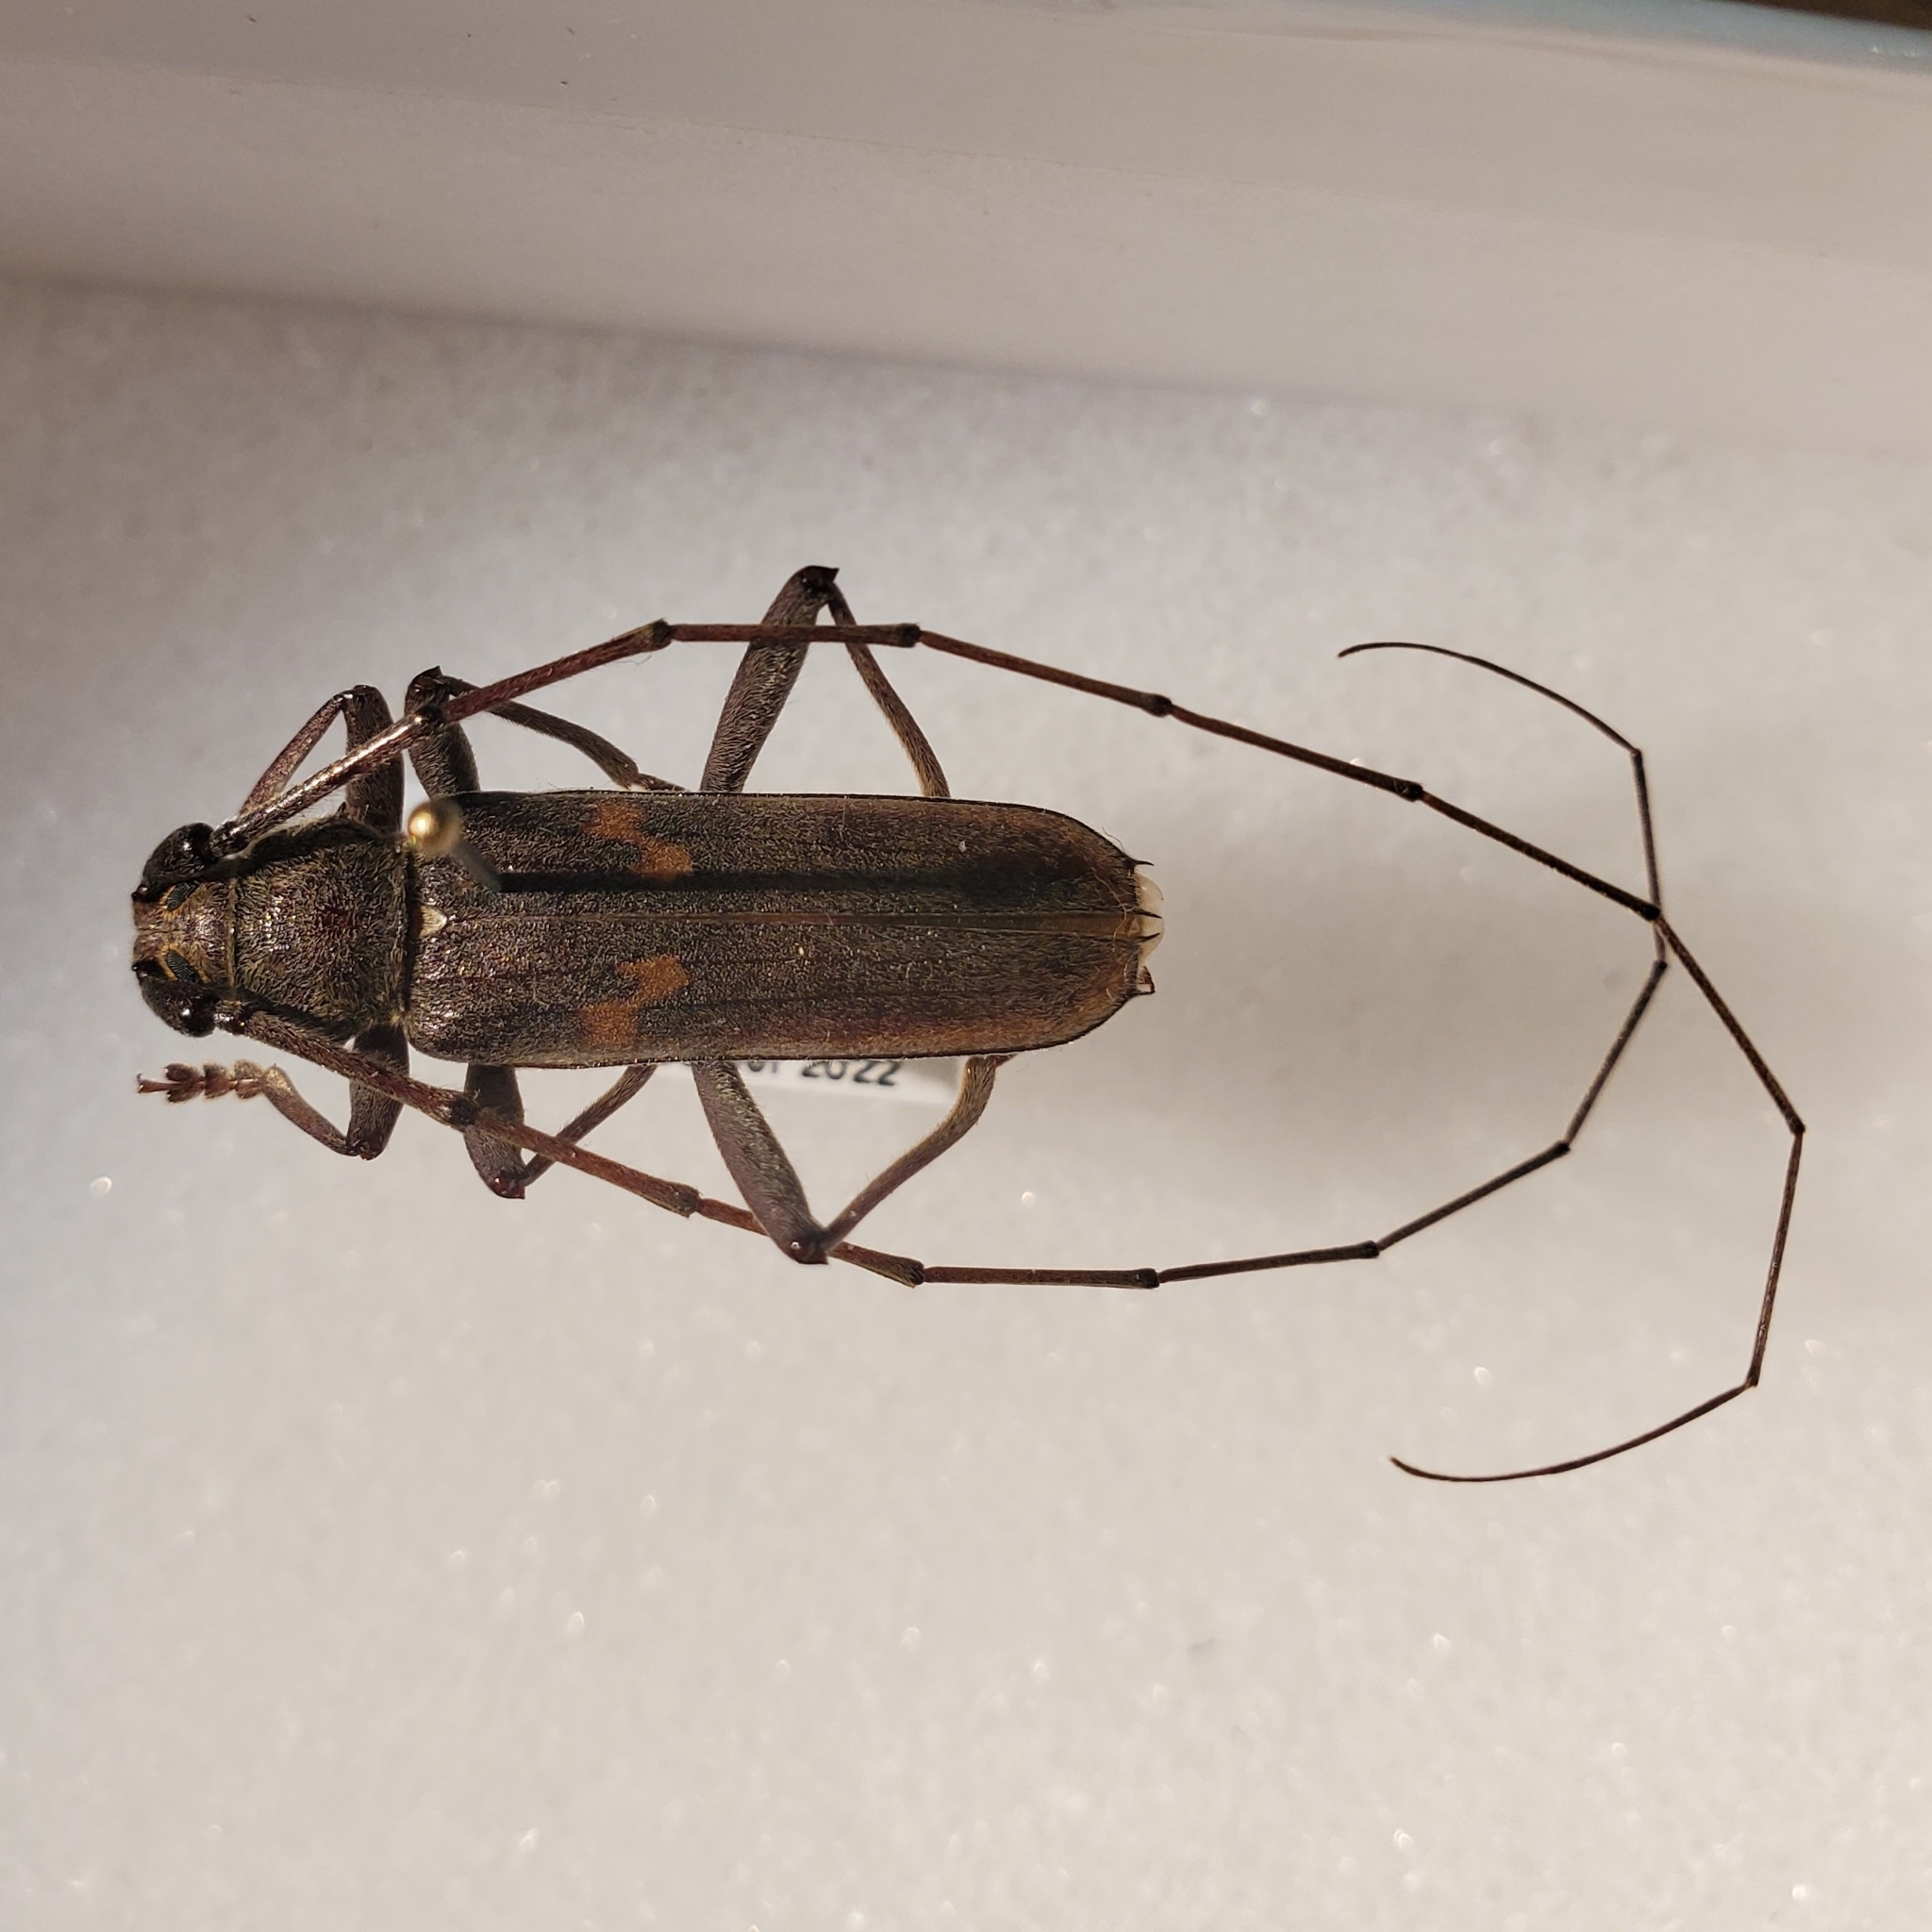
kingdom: Animalia
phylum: Arthropoda
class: Insecta
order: Coleoptera
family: Cerambycidae
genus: Knulliana
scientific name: Knulliana cincta
